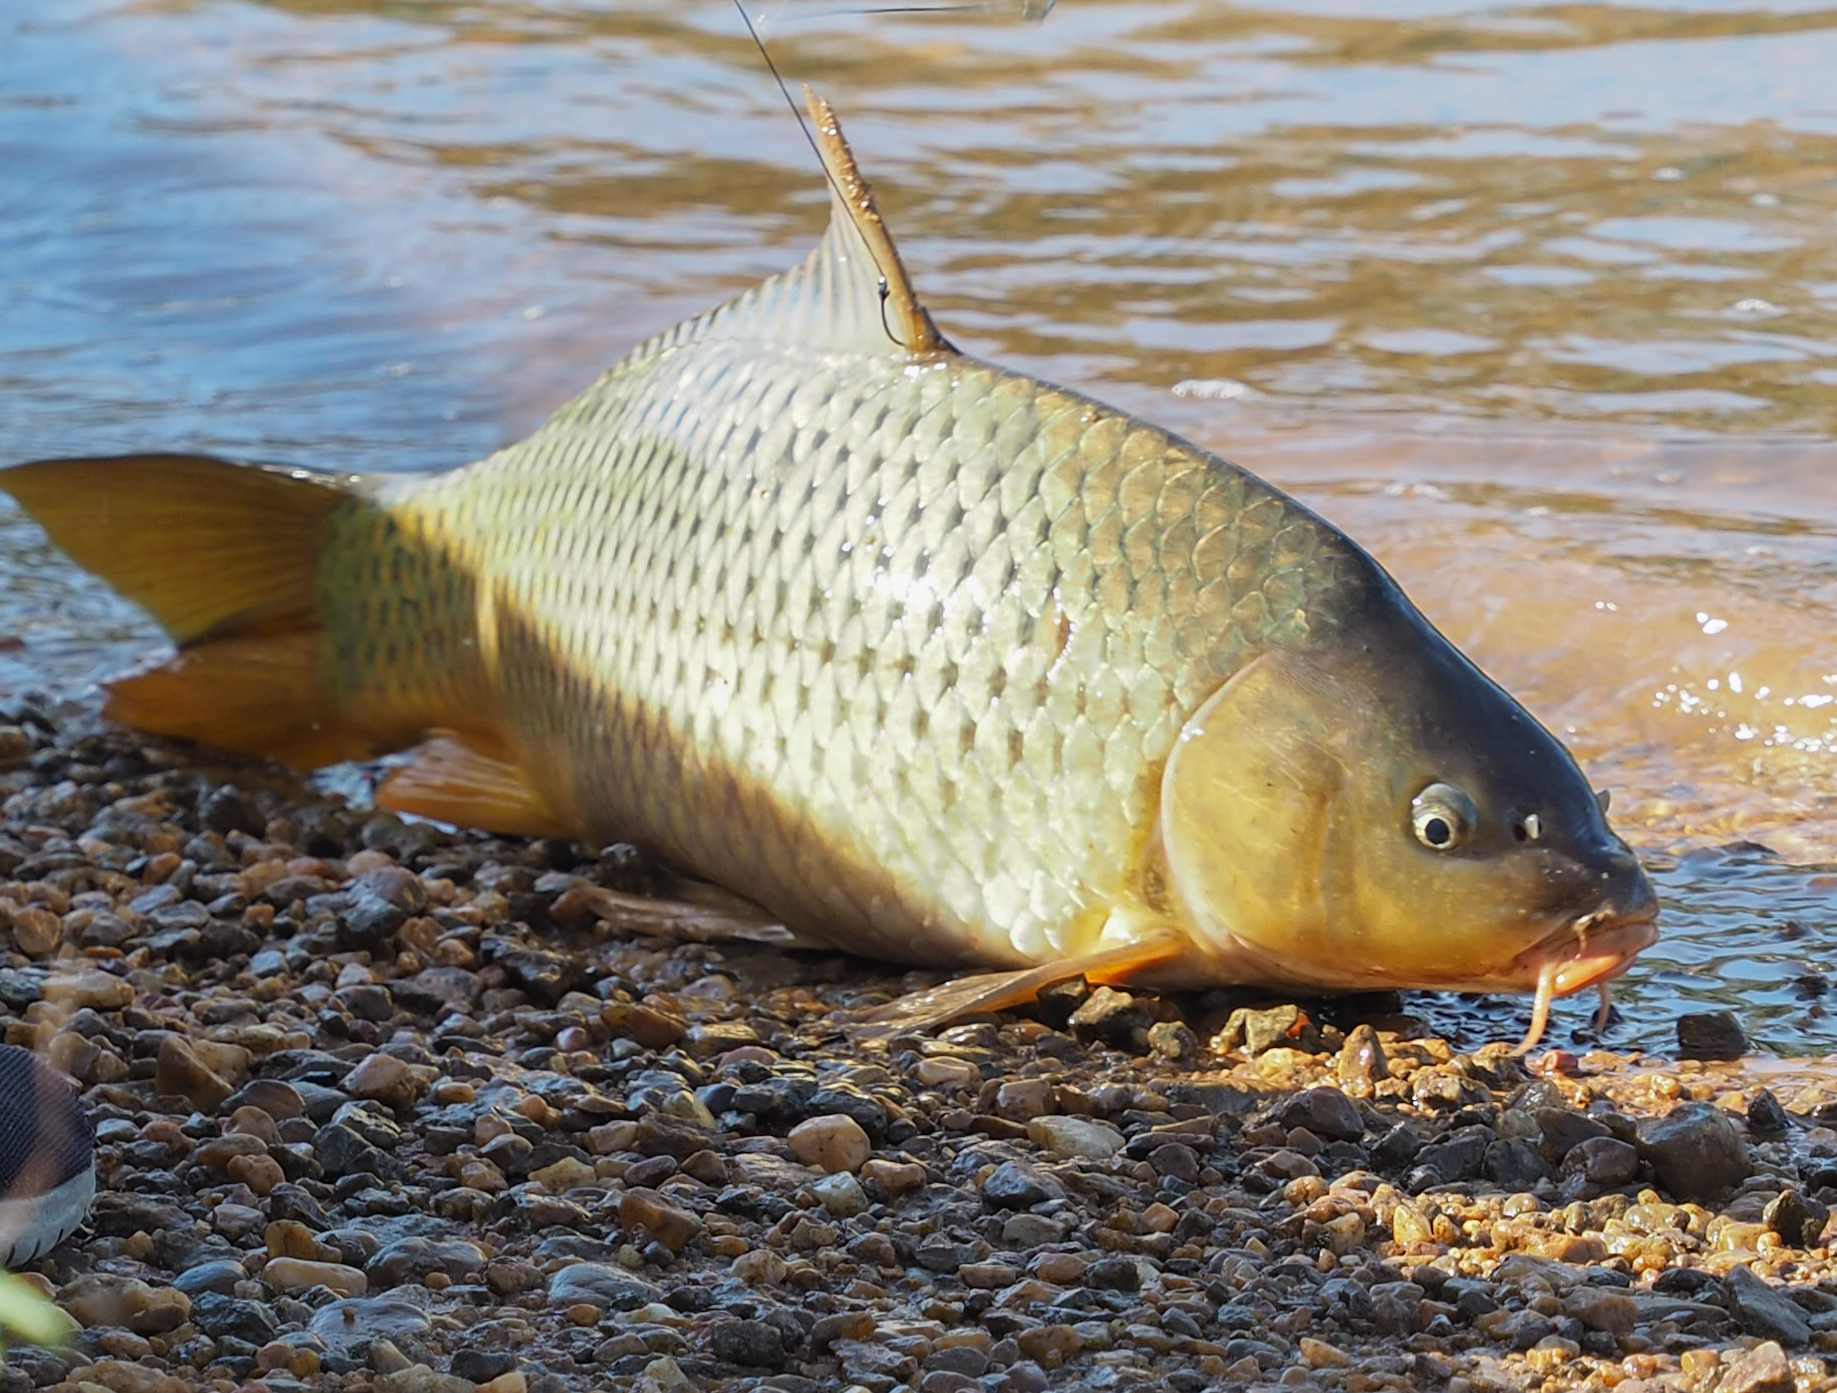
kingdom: Animalia
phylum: Chordata
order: Cypriniformes
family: Cyprinidae
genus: Cyprinus
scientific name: Cyprinus carpio
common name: Common carp
